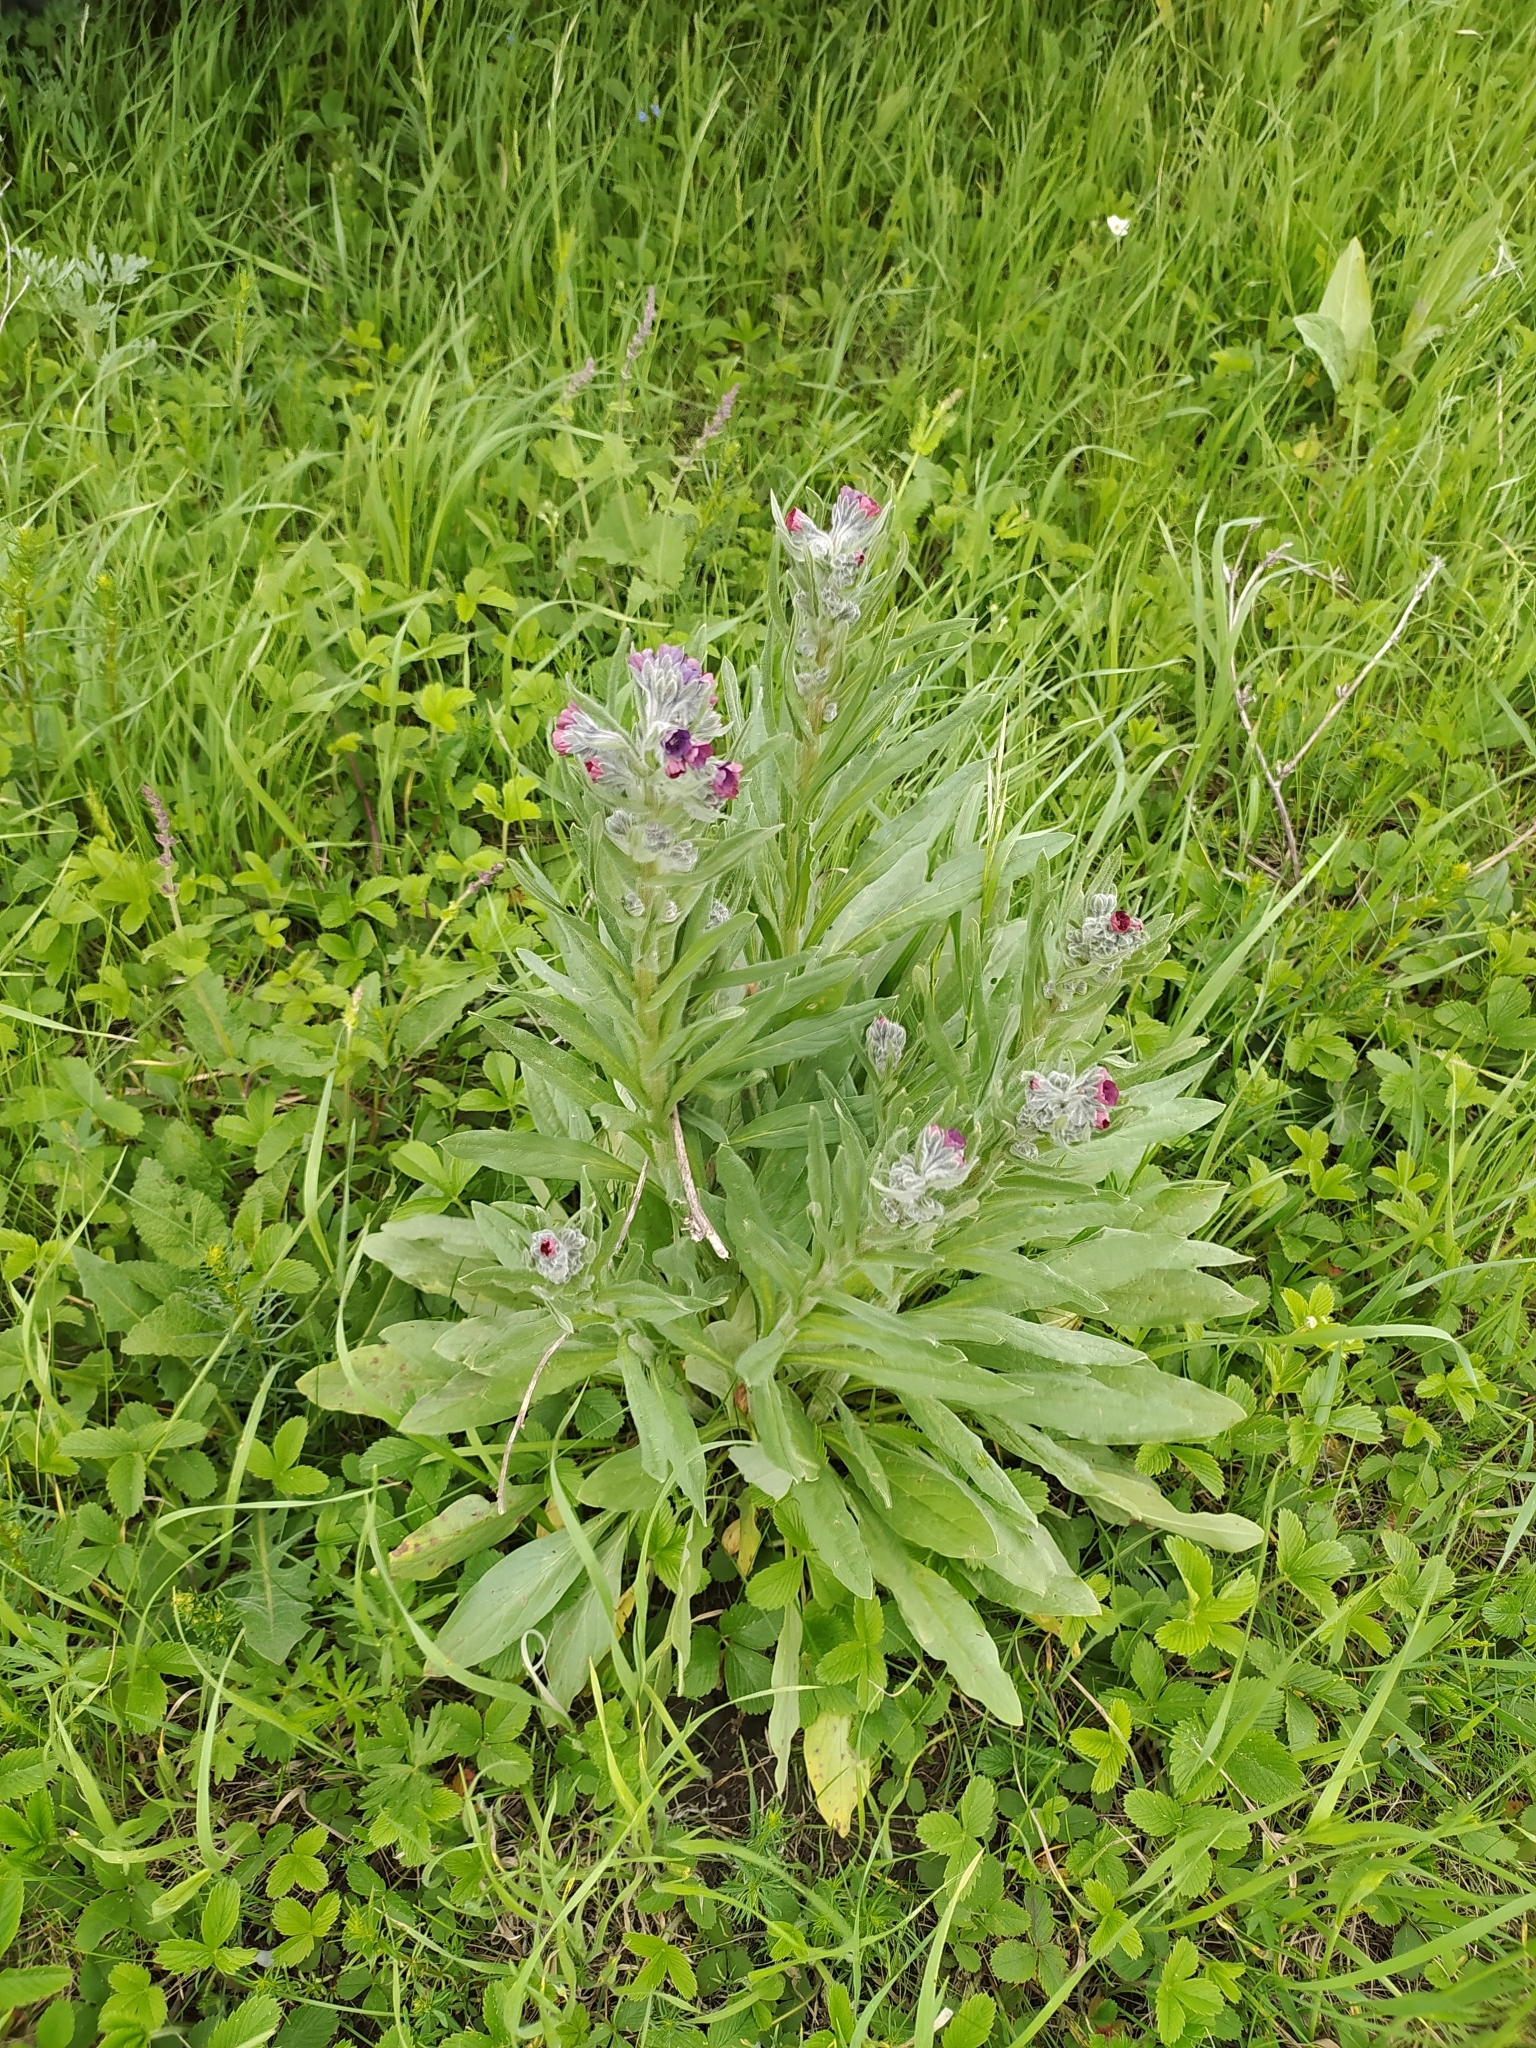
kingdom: Plantae
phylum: Tracheophyta
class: Magnoliopsida
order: Boraginales
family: Boraginaceae
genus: Cynoglossum
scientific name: Cynoglossum officinale
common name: Hound's-tongue
